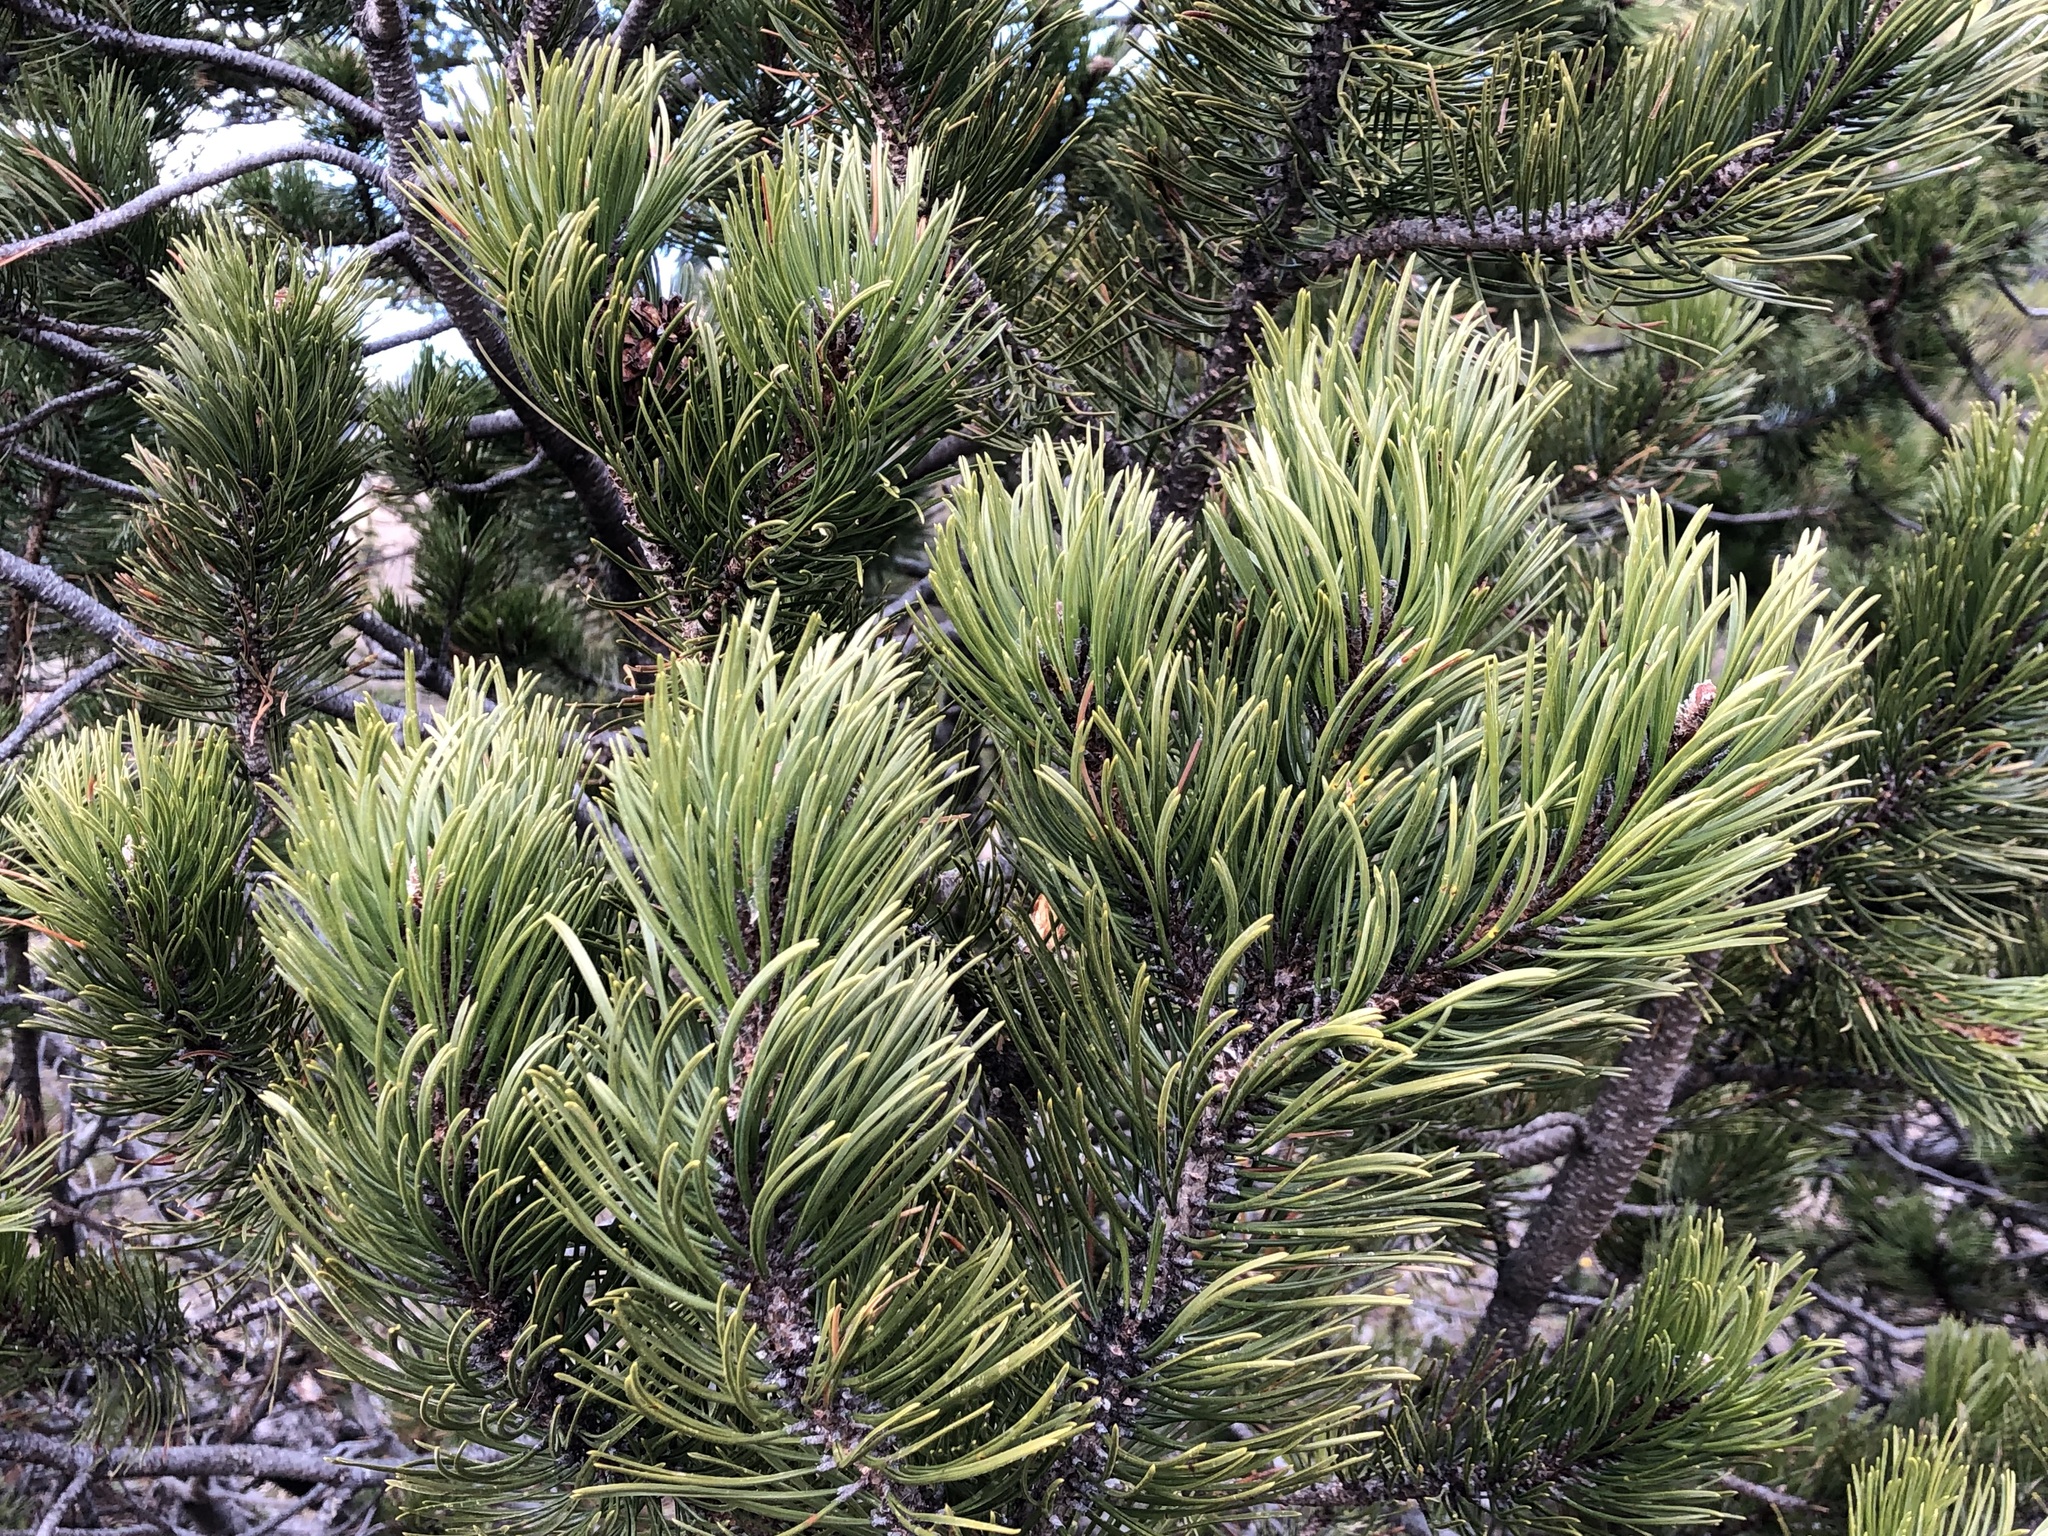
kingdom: Plantae
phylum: Tracheophyta
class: Pinopsida
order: Pinales
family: Pinaceae
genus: Pinus
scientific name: Pinus mugo
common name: Mugo pine
